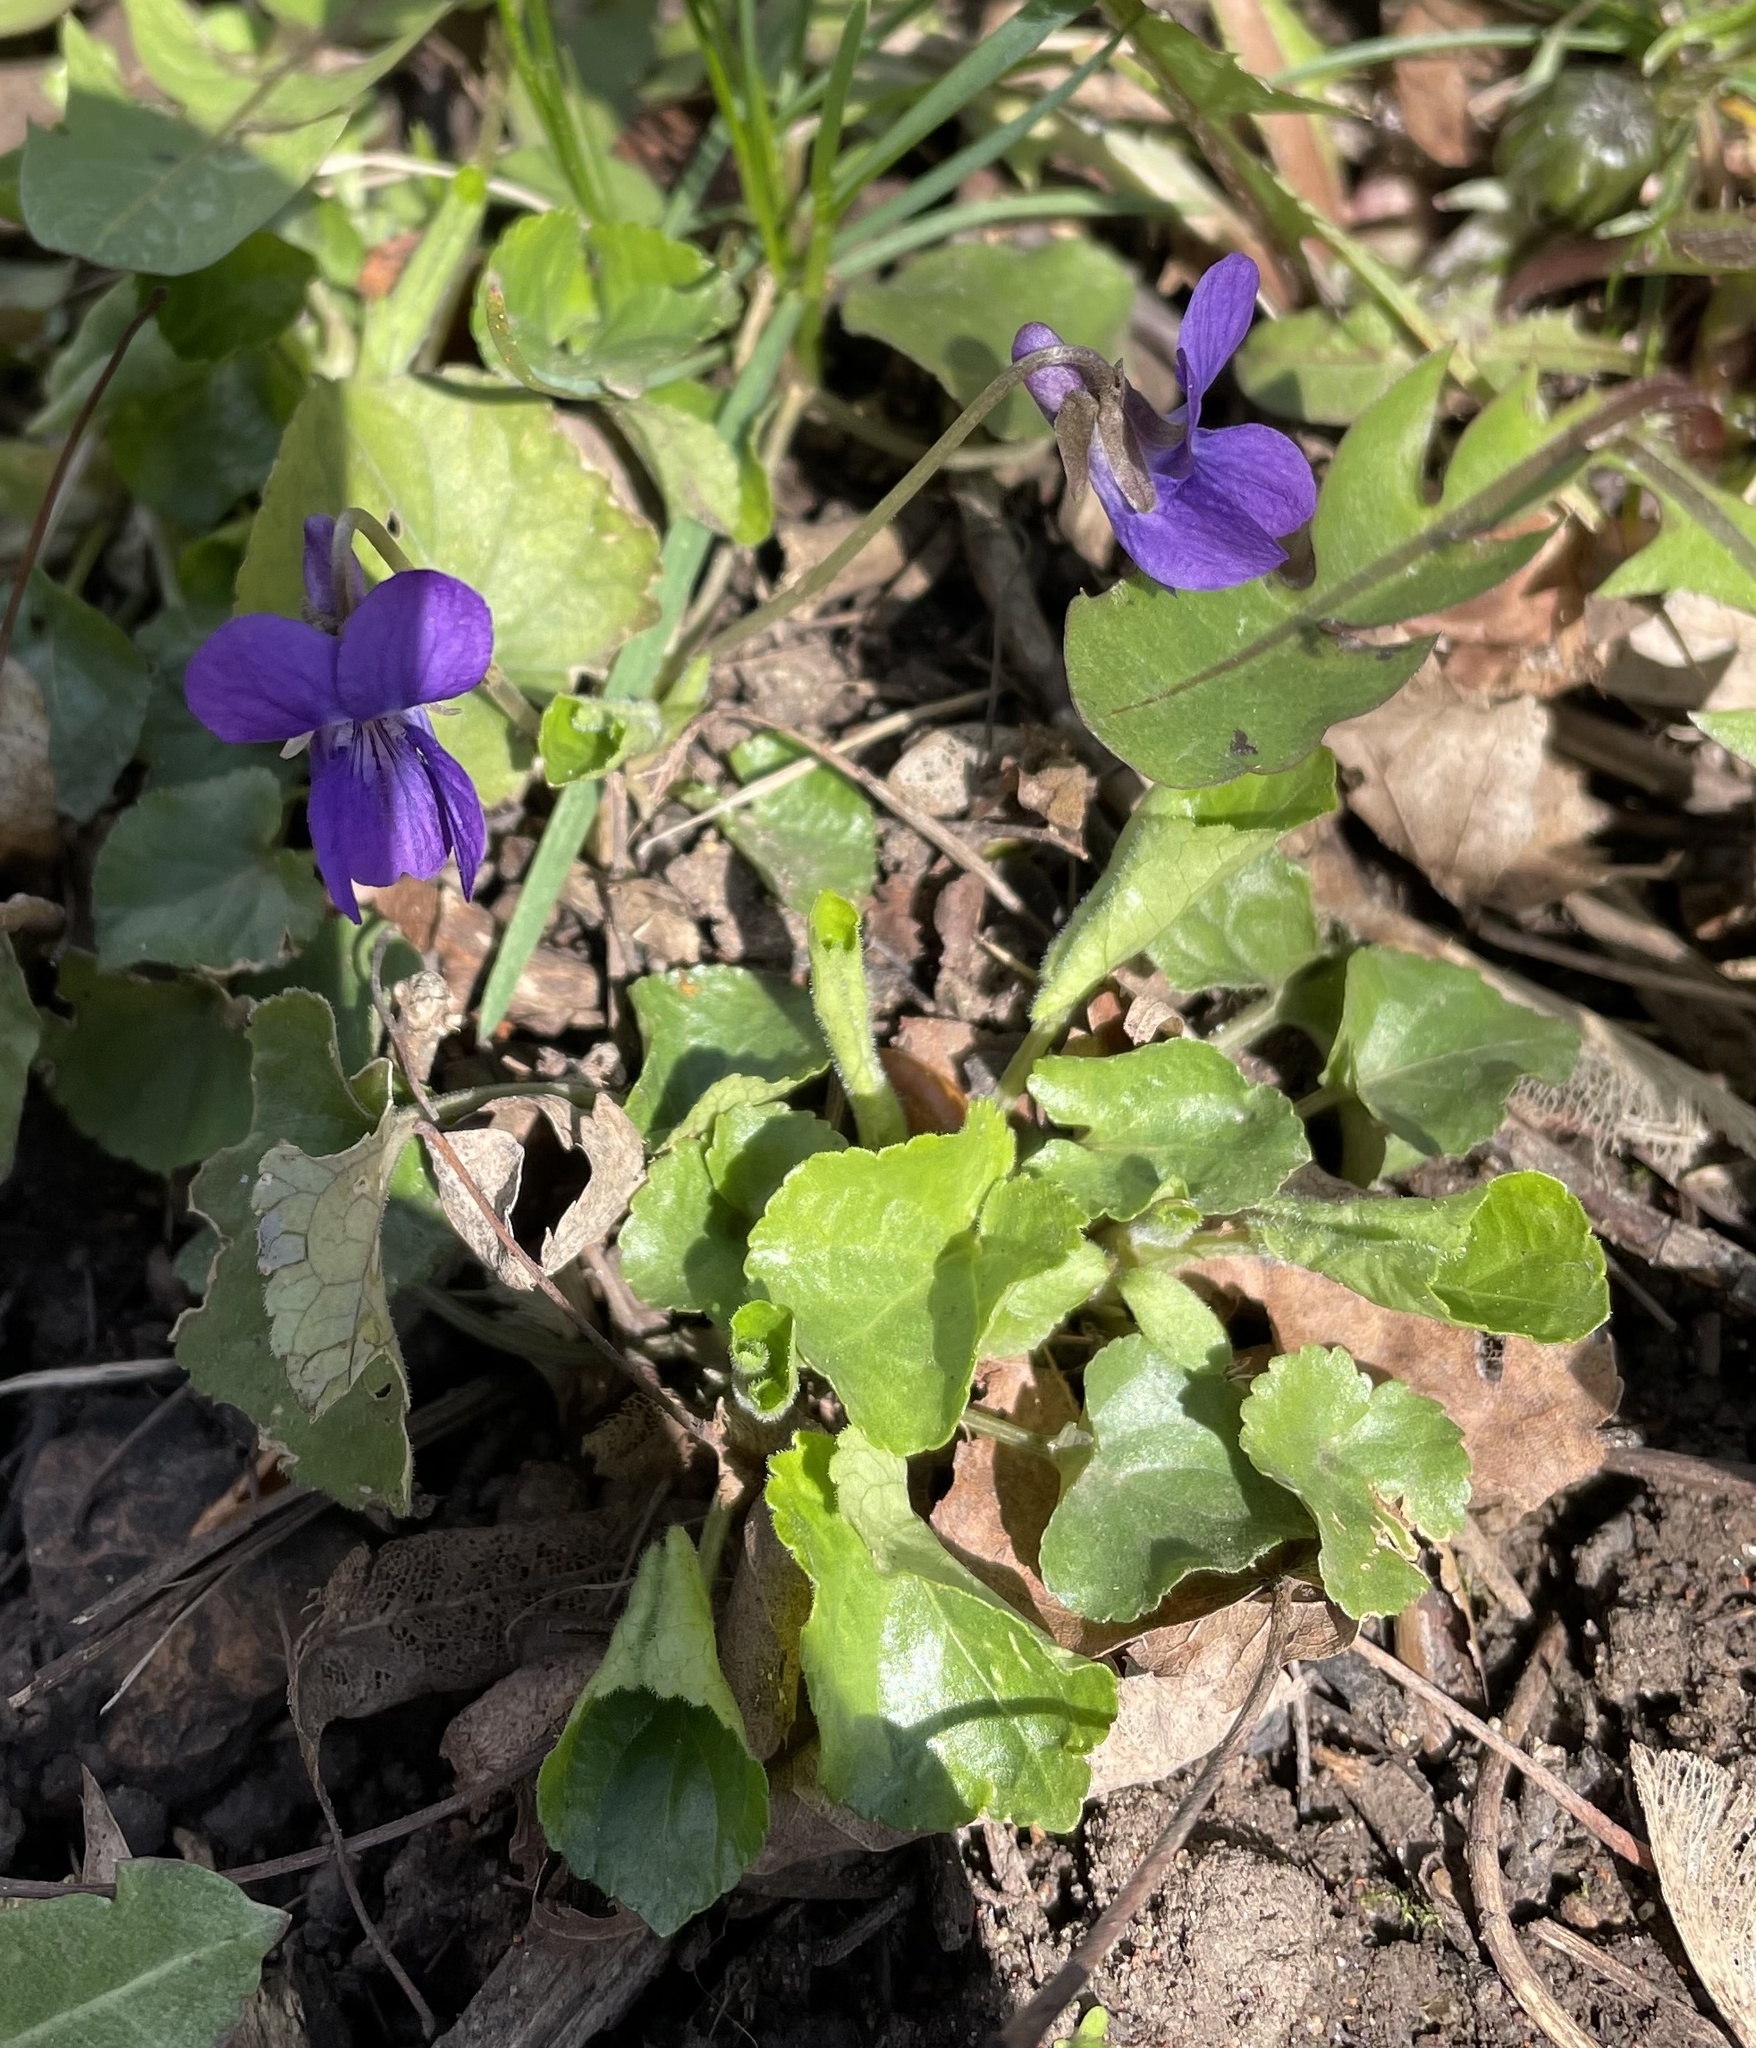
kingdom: Plantae
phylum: Tracheophyta
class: Magnoliopsida
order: Malpighiales
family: Violaceae
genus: Viola
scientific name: Viola odorata
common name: Sweet violet
